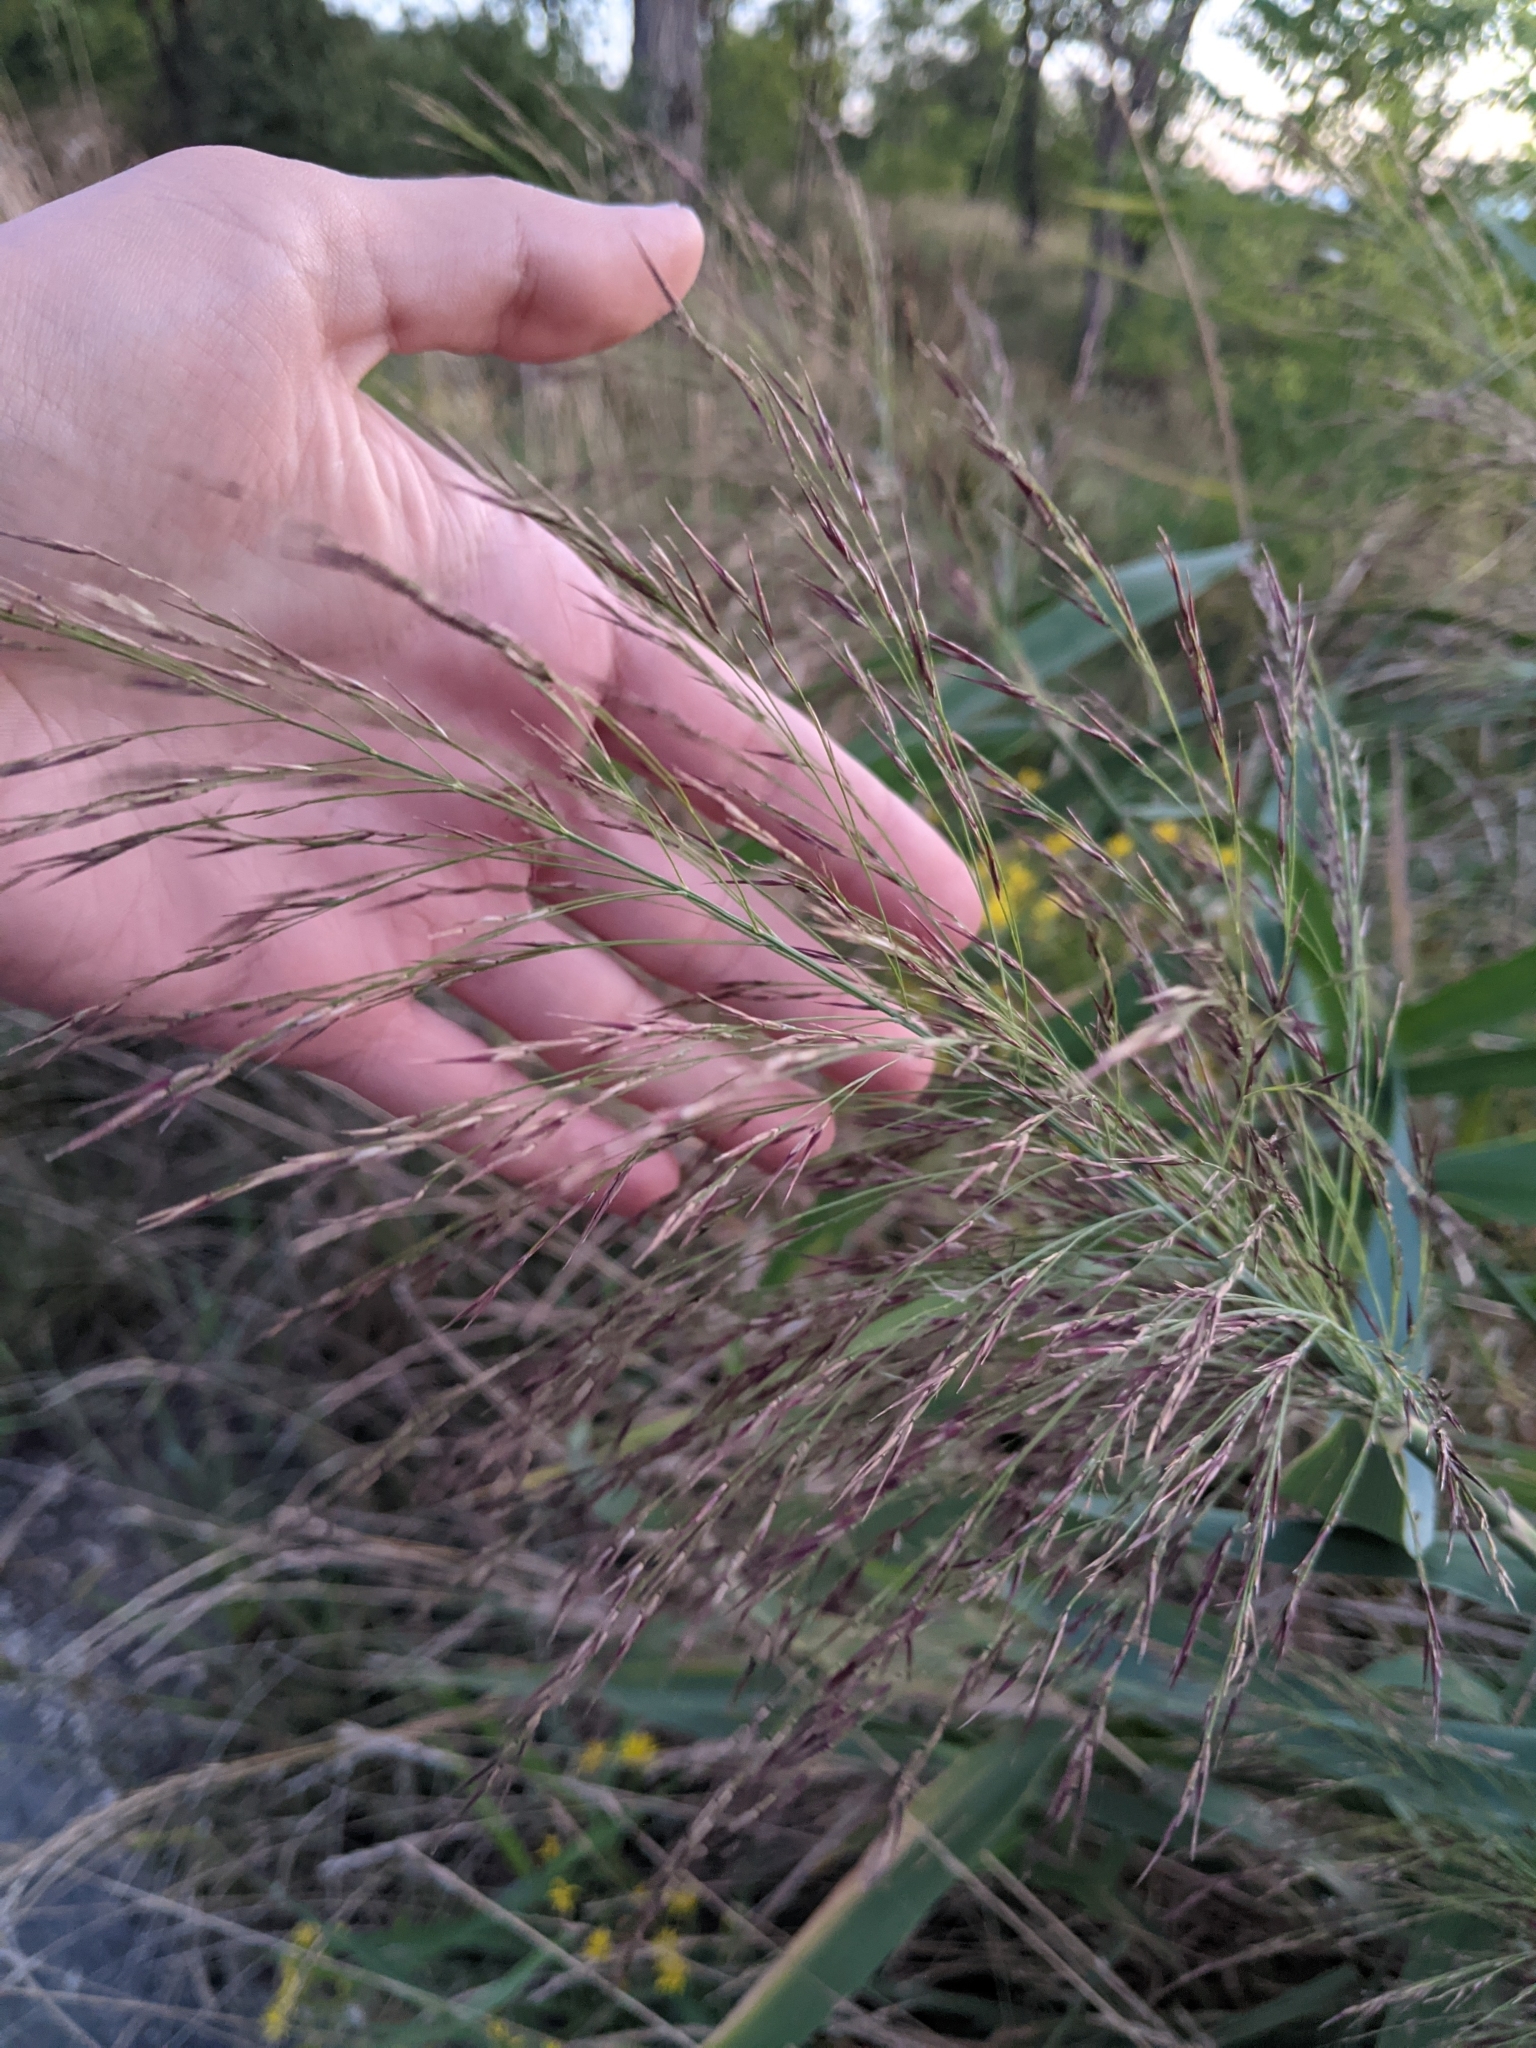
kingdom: Plantae
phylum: Tracheophyta
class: Liliopsida
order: Poales
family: Poaceae
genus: Phragmites
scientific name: Phragmites australis
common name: Common reed
